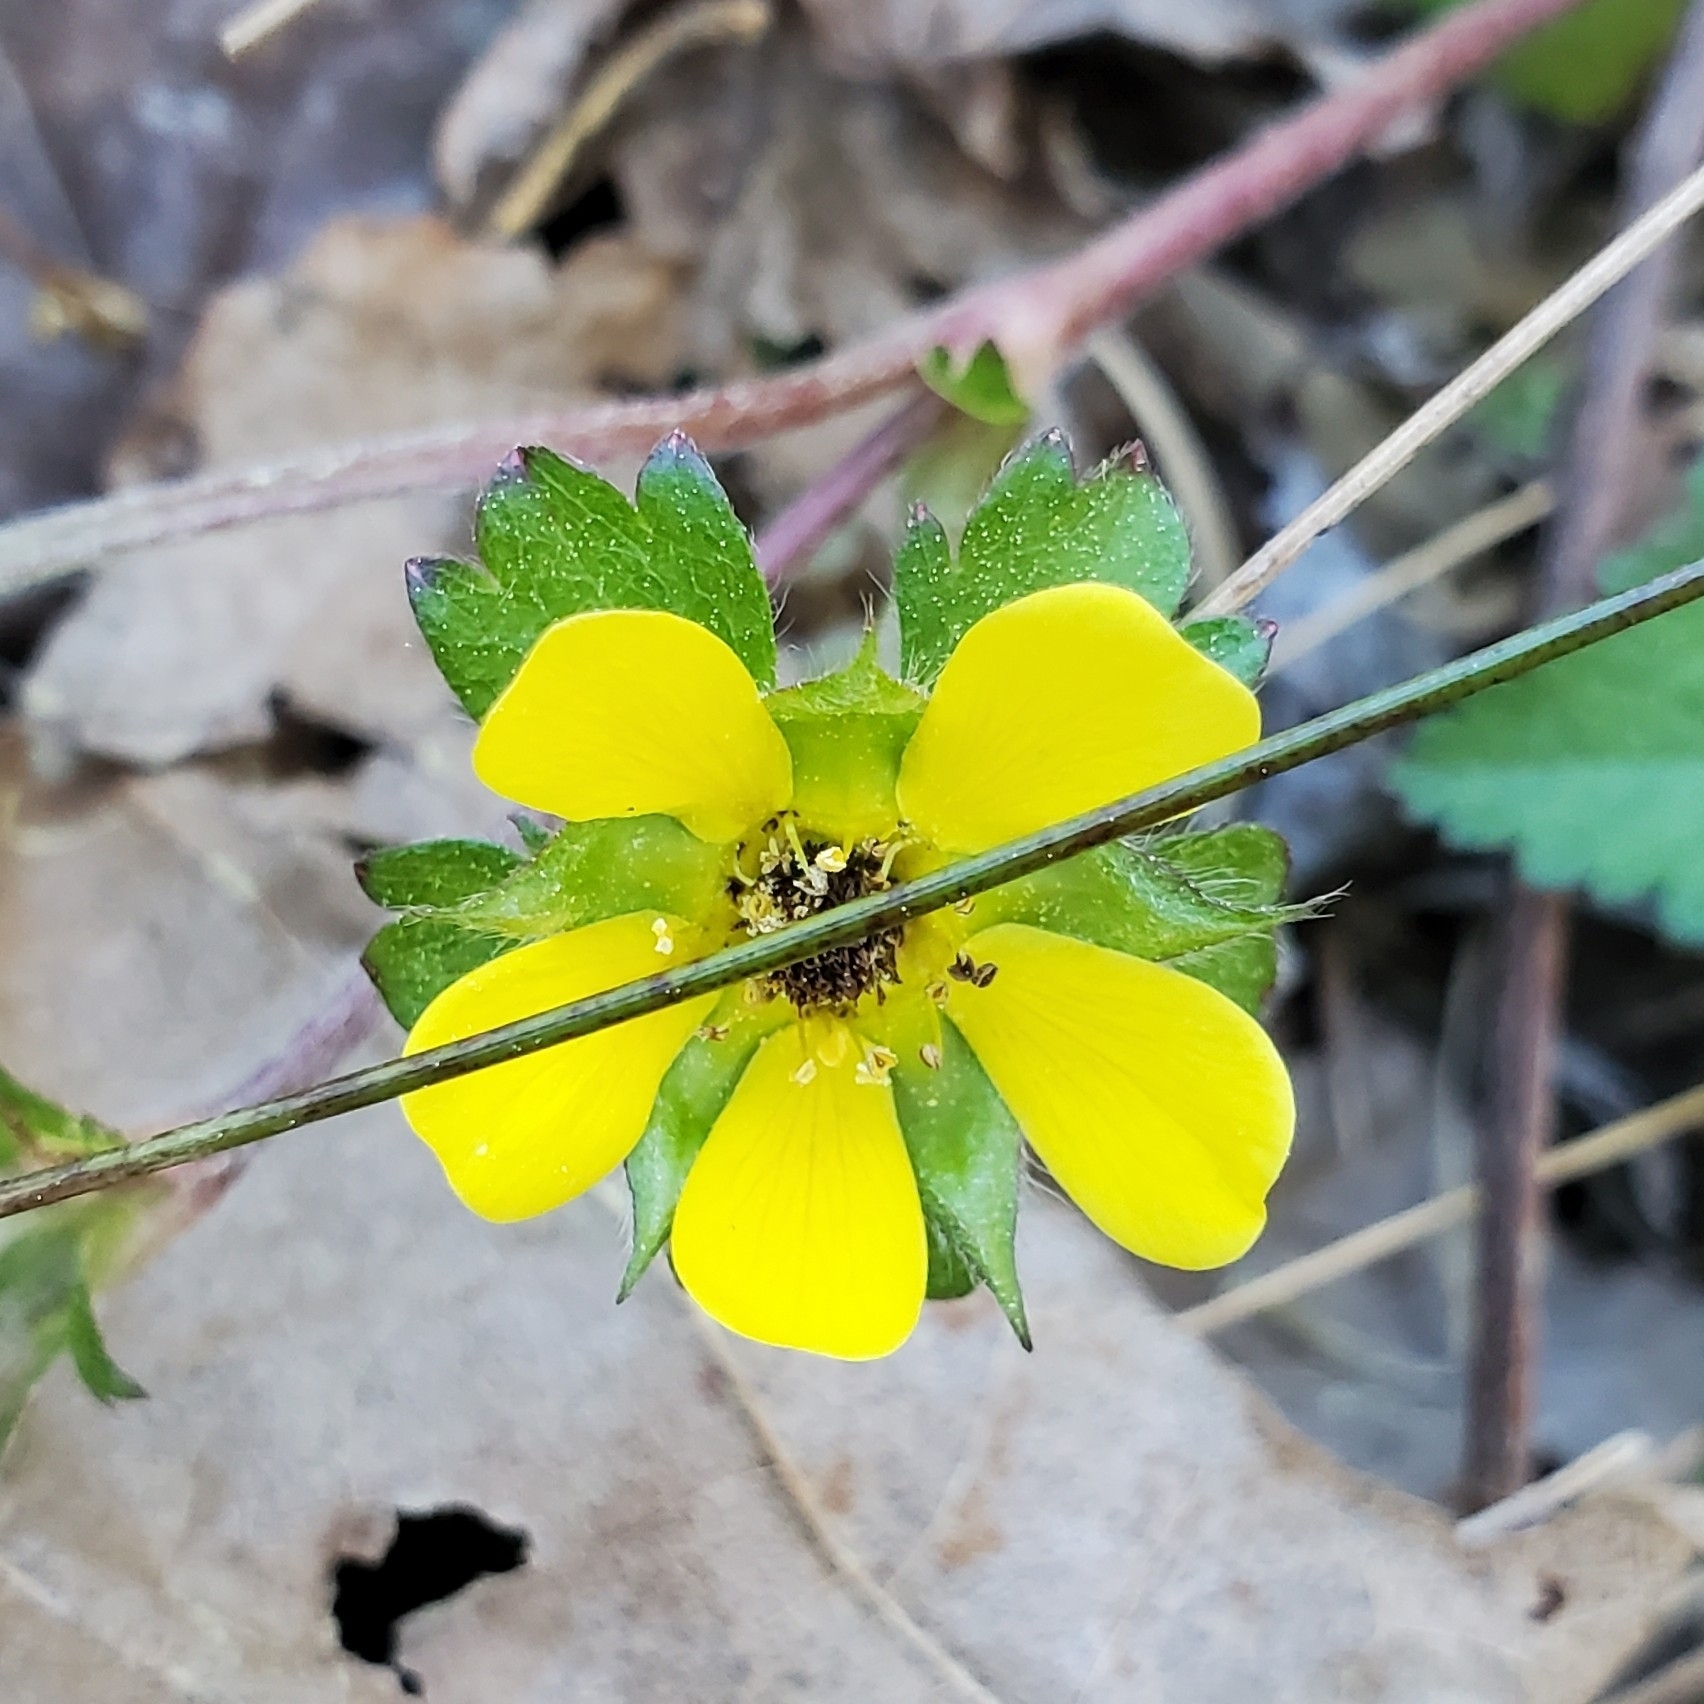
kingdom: Plantae
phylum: Tracheophyta
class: Magnoliopsida
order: Rosales
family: Rosaceae
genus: Potentilla
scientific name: Potentilla indica
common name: Yellow-flowered strawberry
